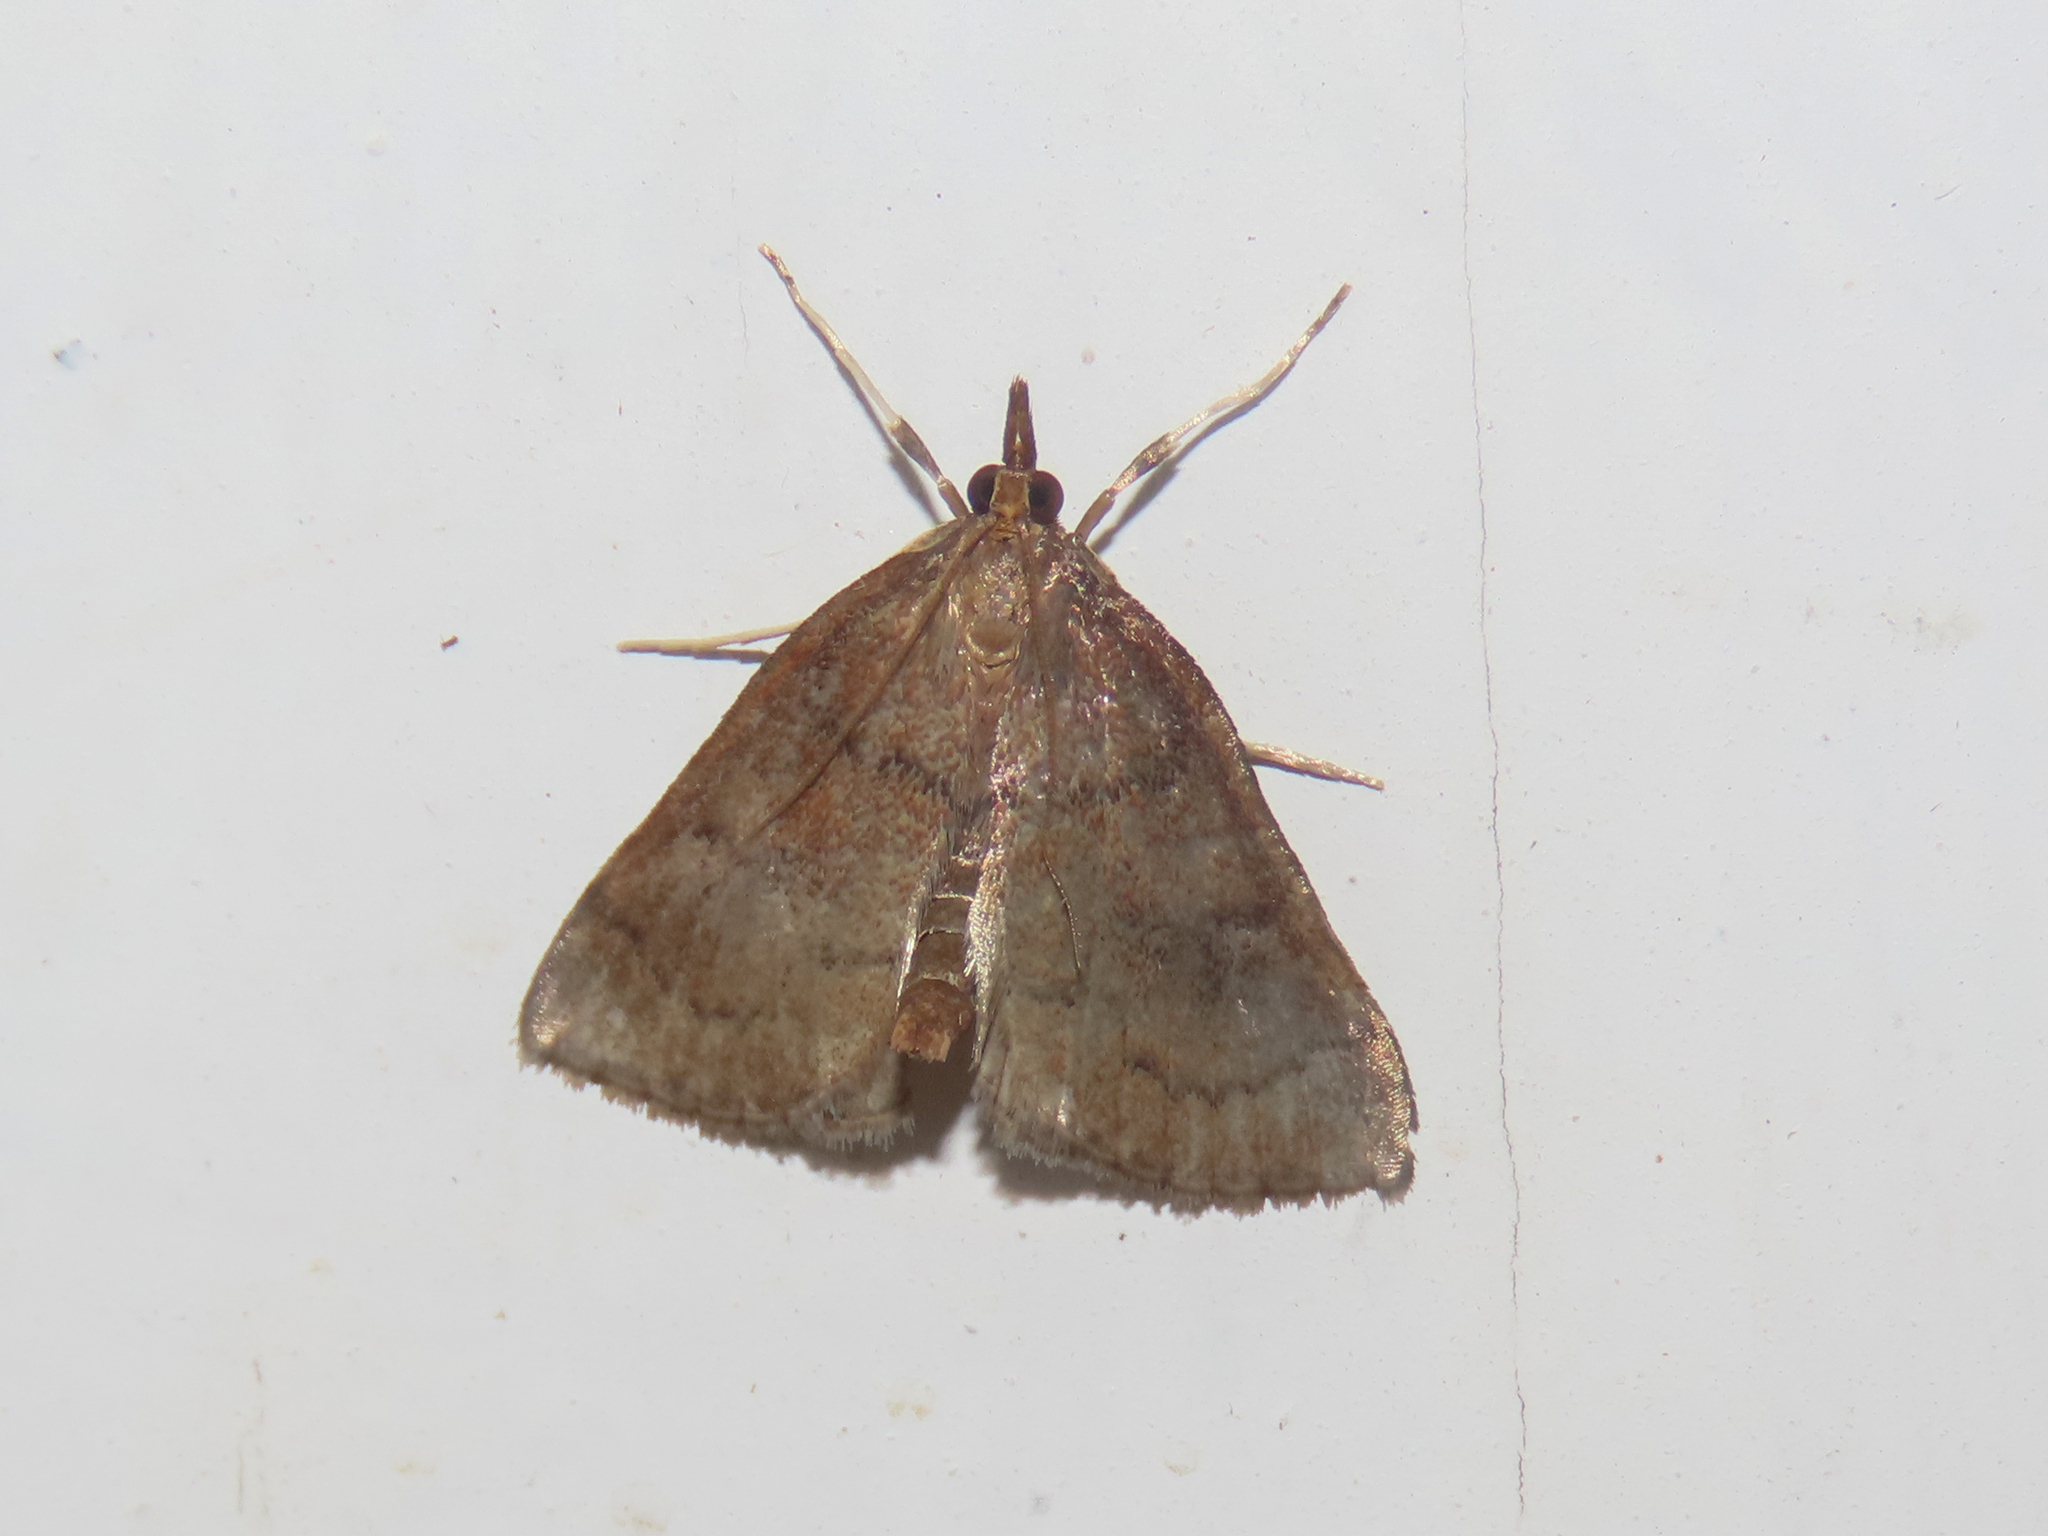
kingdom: Animalia
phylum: Arthropoda
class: Insecta
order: Lepidoptera
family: Crambidae
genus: Fumibotys
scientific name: Fumibotys fumalis
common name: Mint root borer moth
